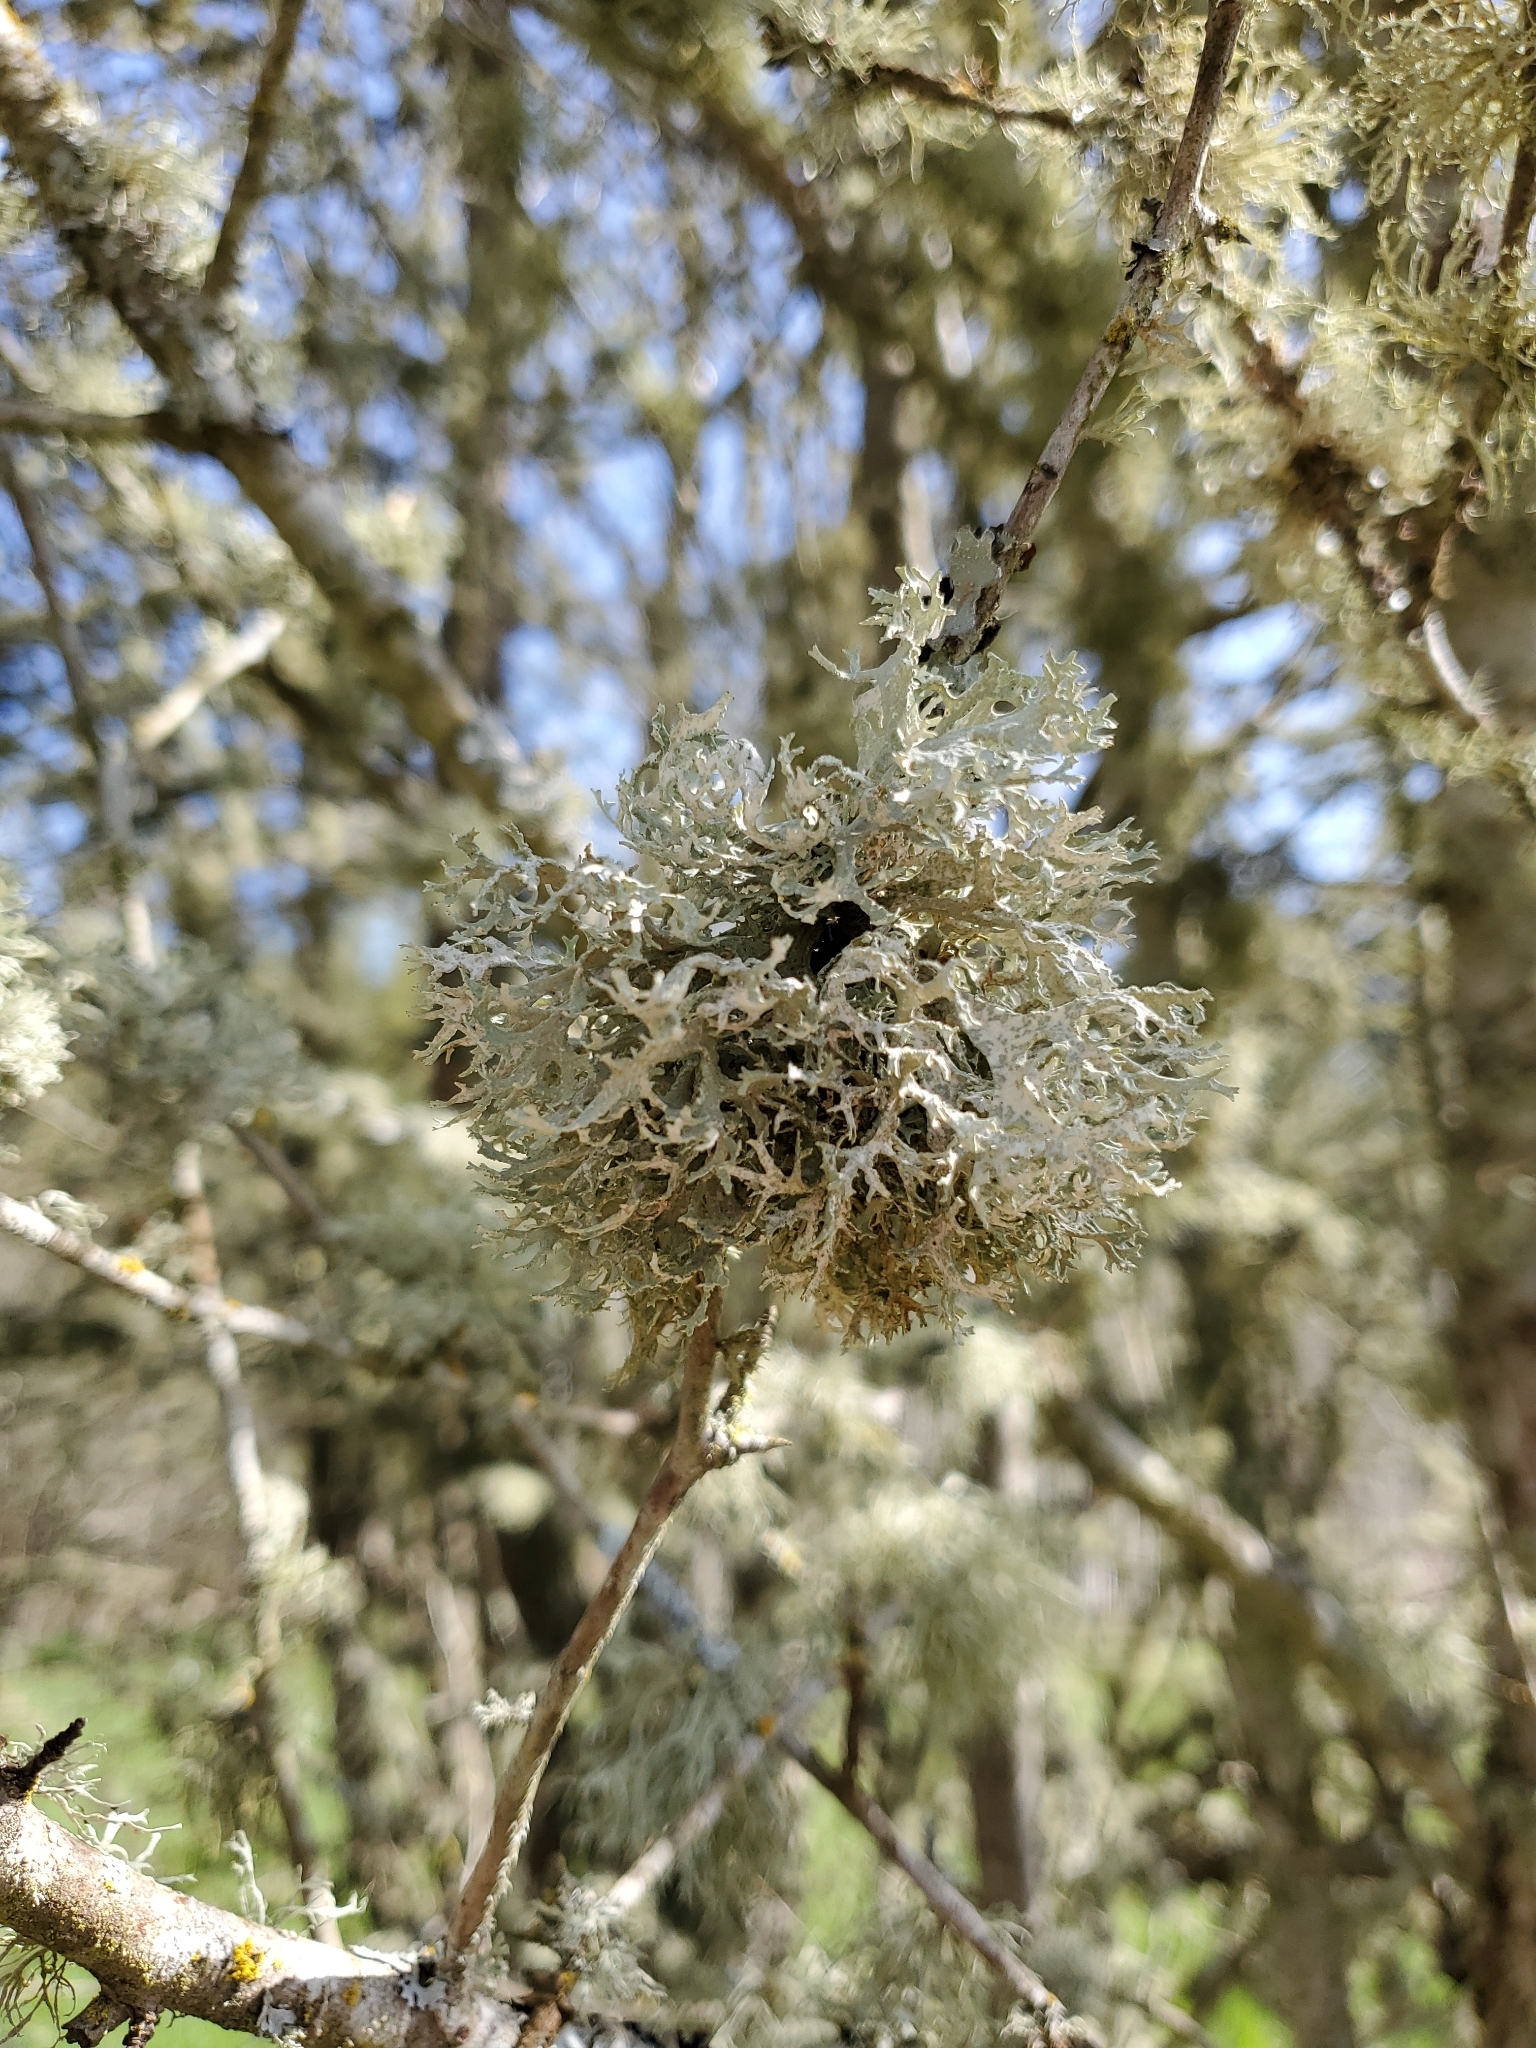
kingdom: Fungi
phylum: Ascomycota
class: Lecanoromycetes
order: Lecanorales
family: Parmeliaceae
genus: Evernia
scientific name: Evernia prunastri
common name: Oak moss
